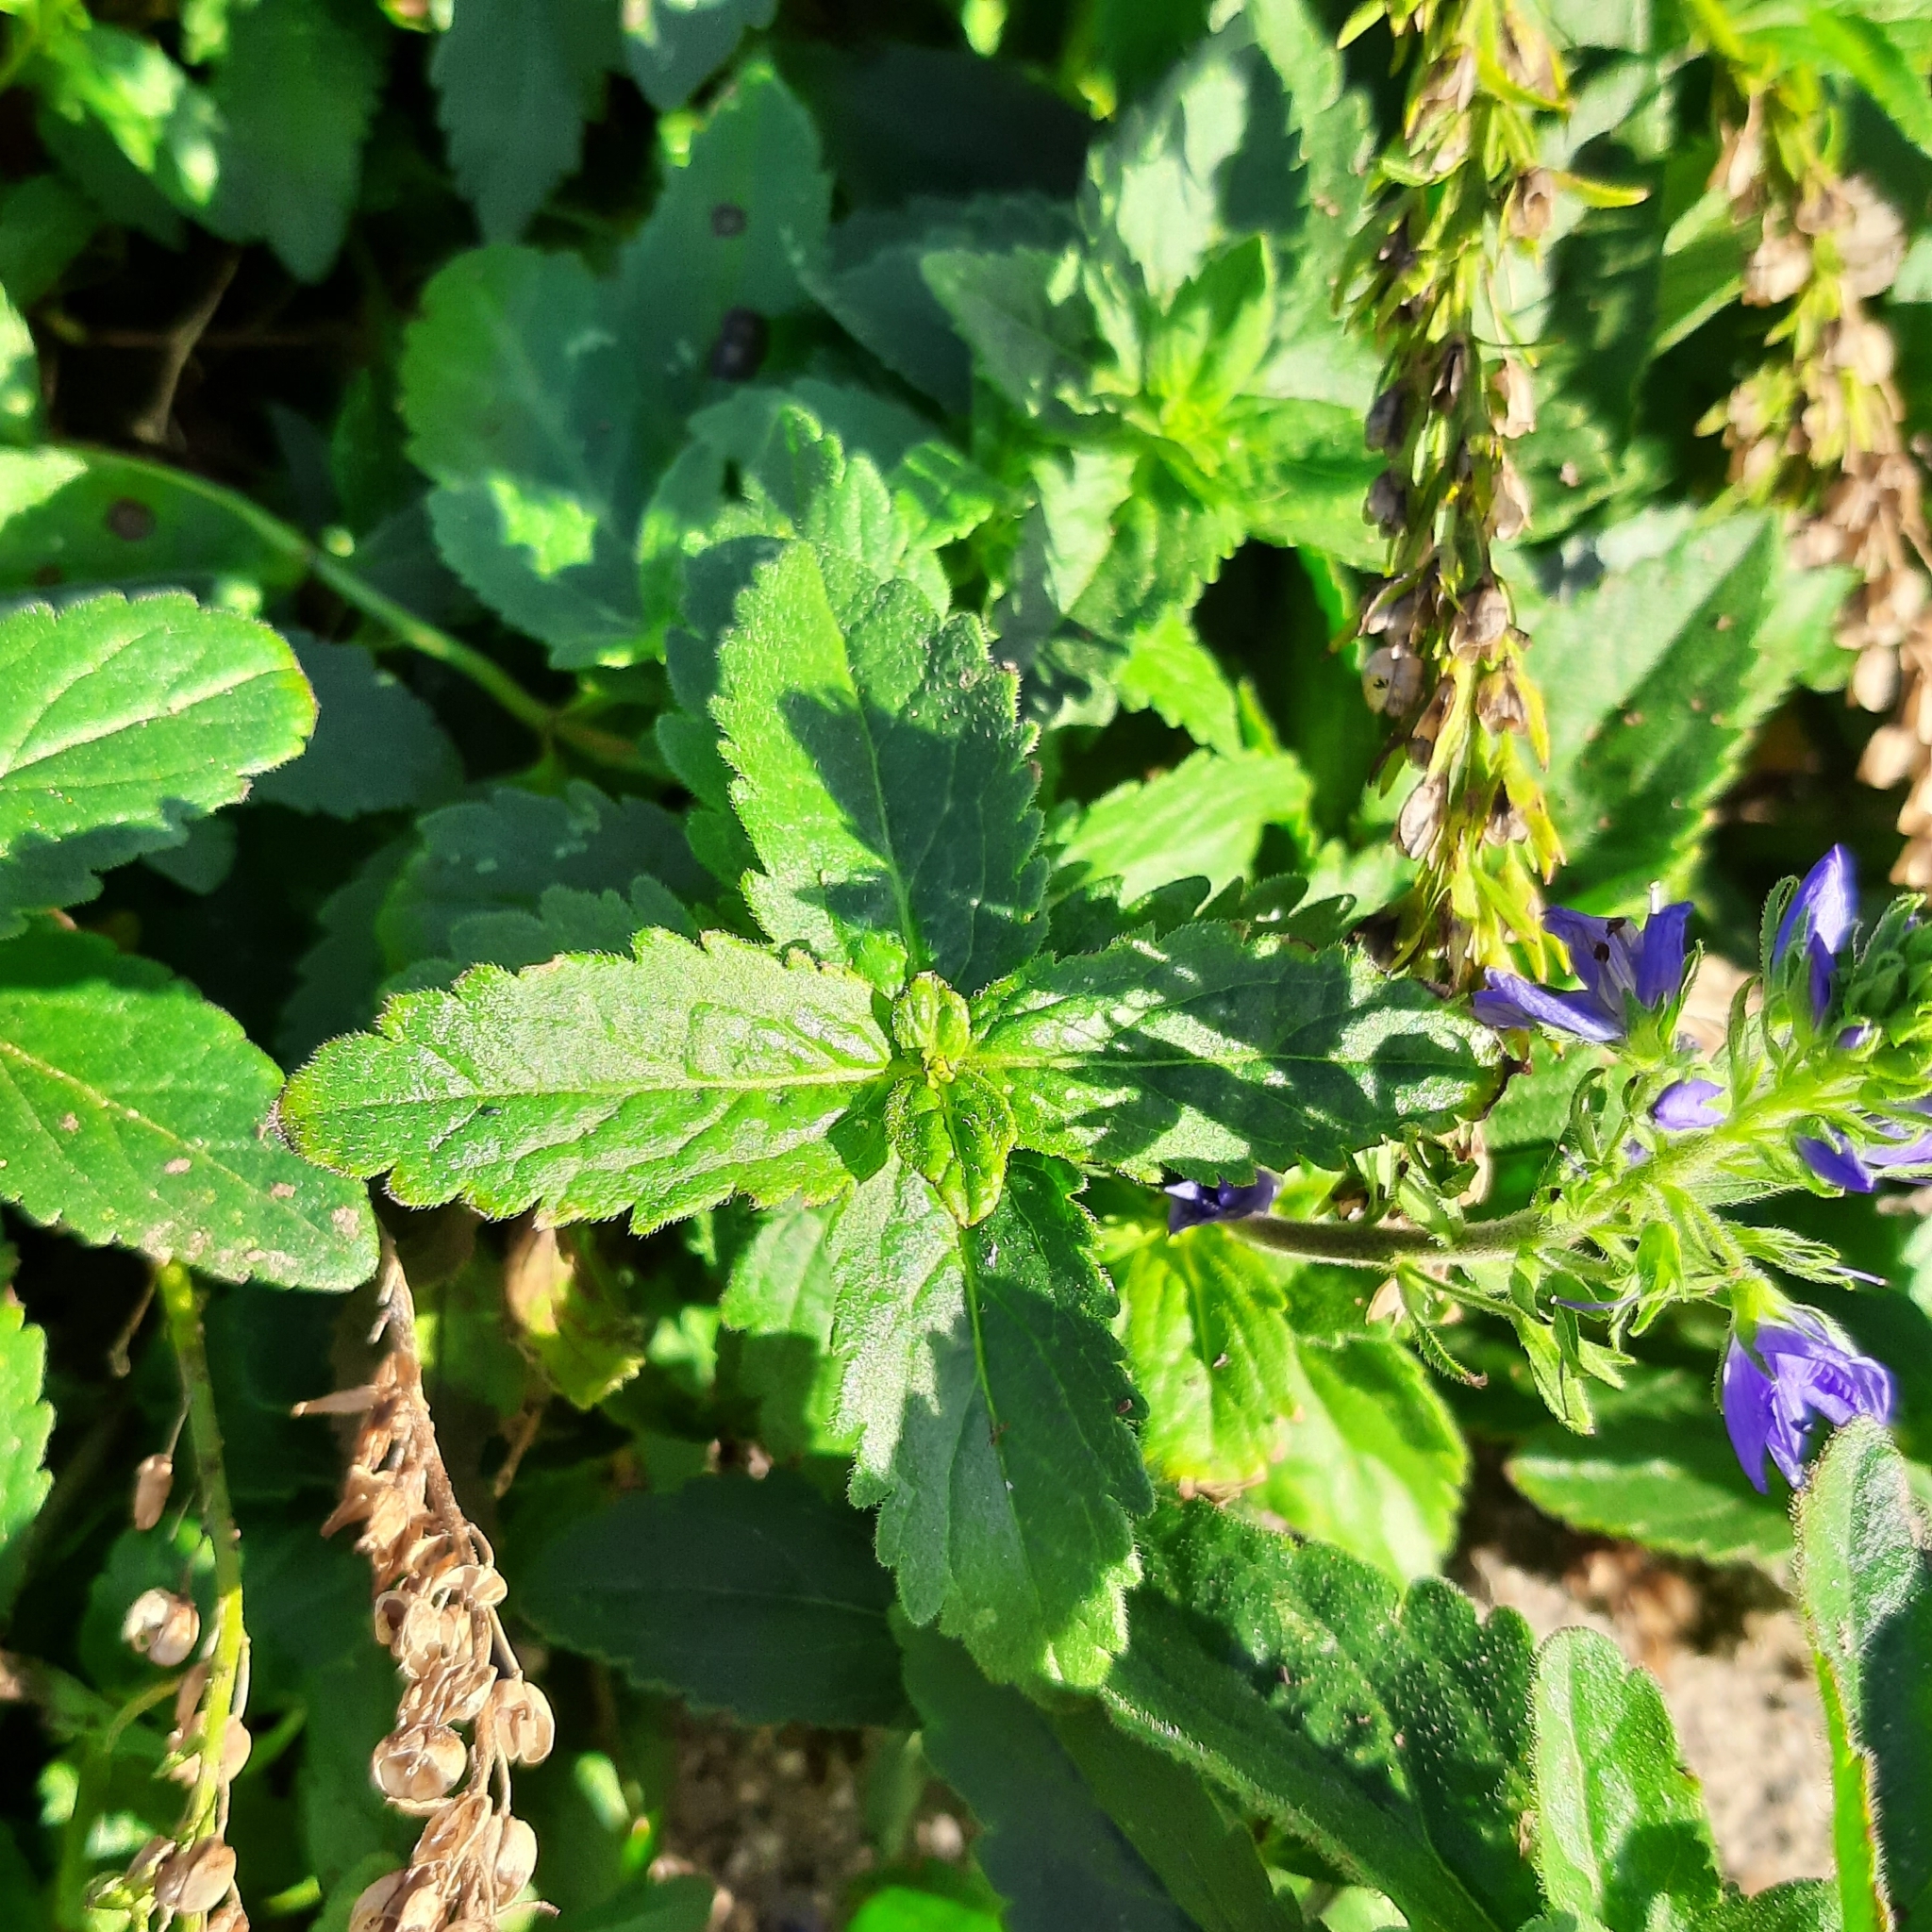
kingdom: Plantae
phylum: Tracheophyta
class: Magnoliopsida
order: Lamiales
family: Plantaginaceae
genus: Veronica
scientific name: Veronica teucrium
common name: Large speedwell
